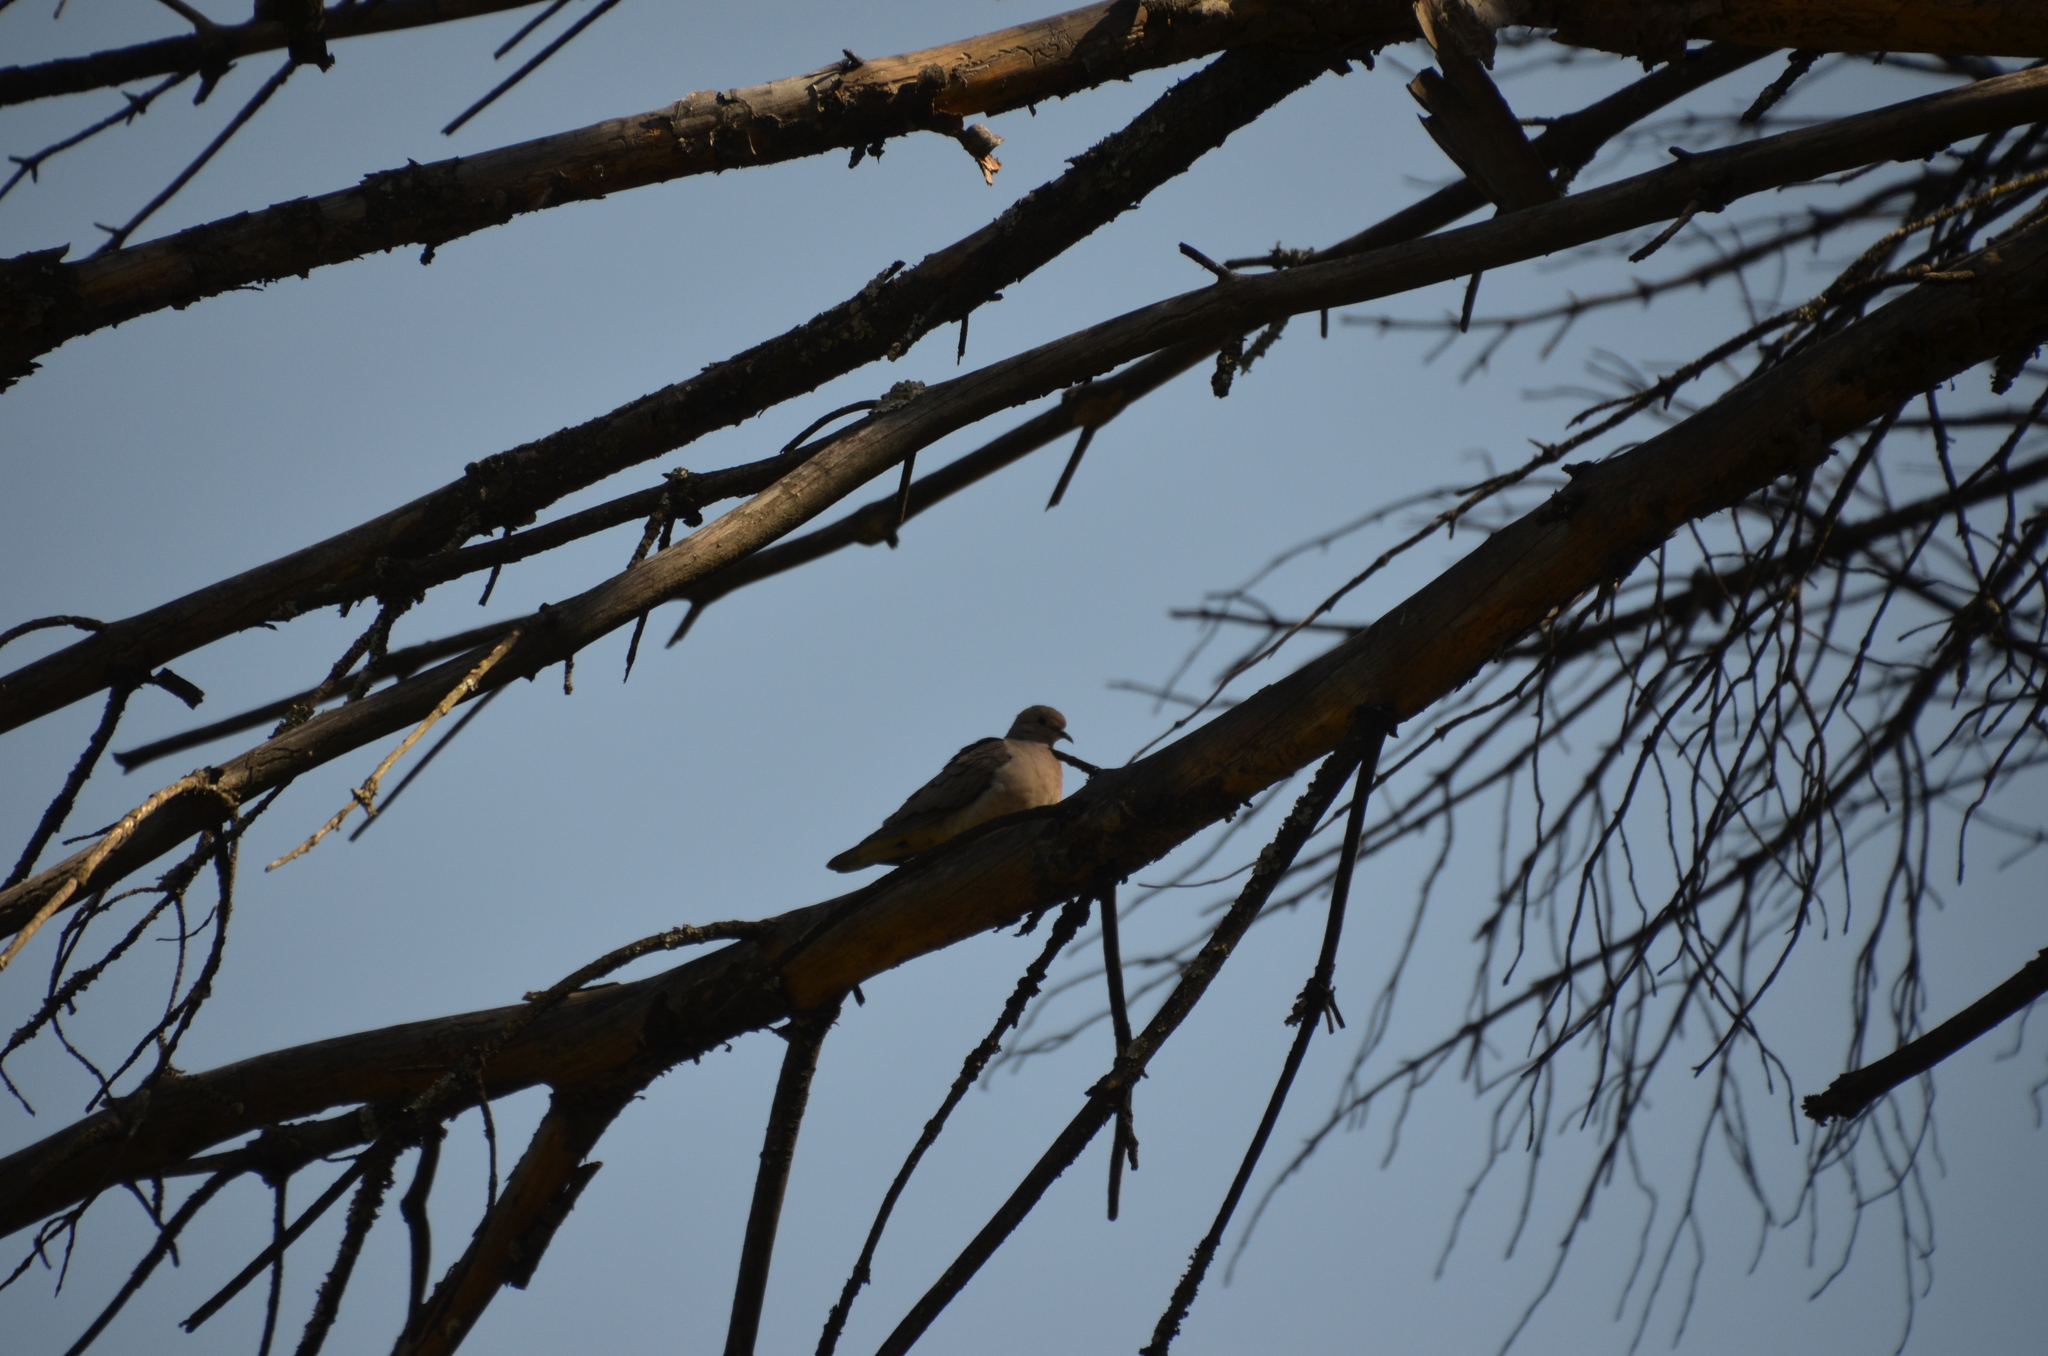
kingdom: Animalia
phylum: Chordata
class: Aves
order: Columbiformes
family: Columbidae
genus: Zenaida
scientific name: Zenaida auriculata
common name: Eared dove
